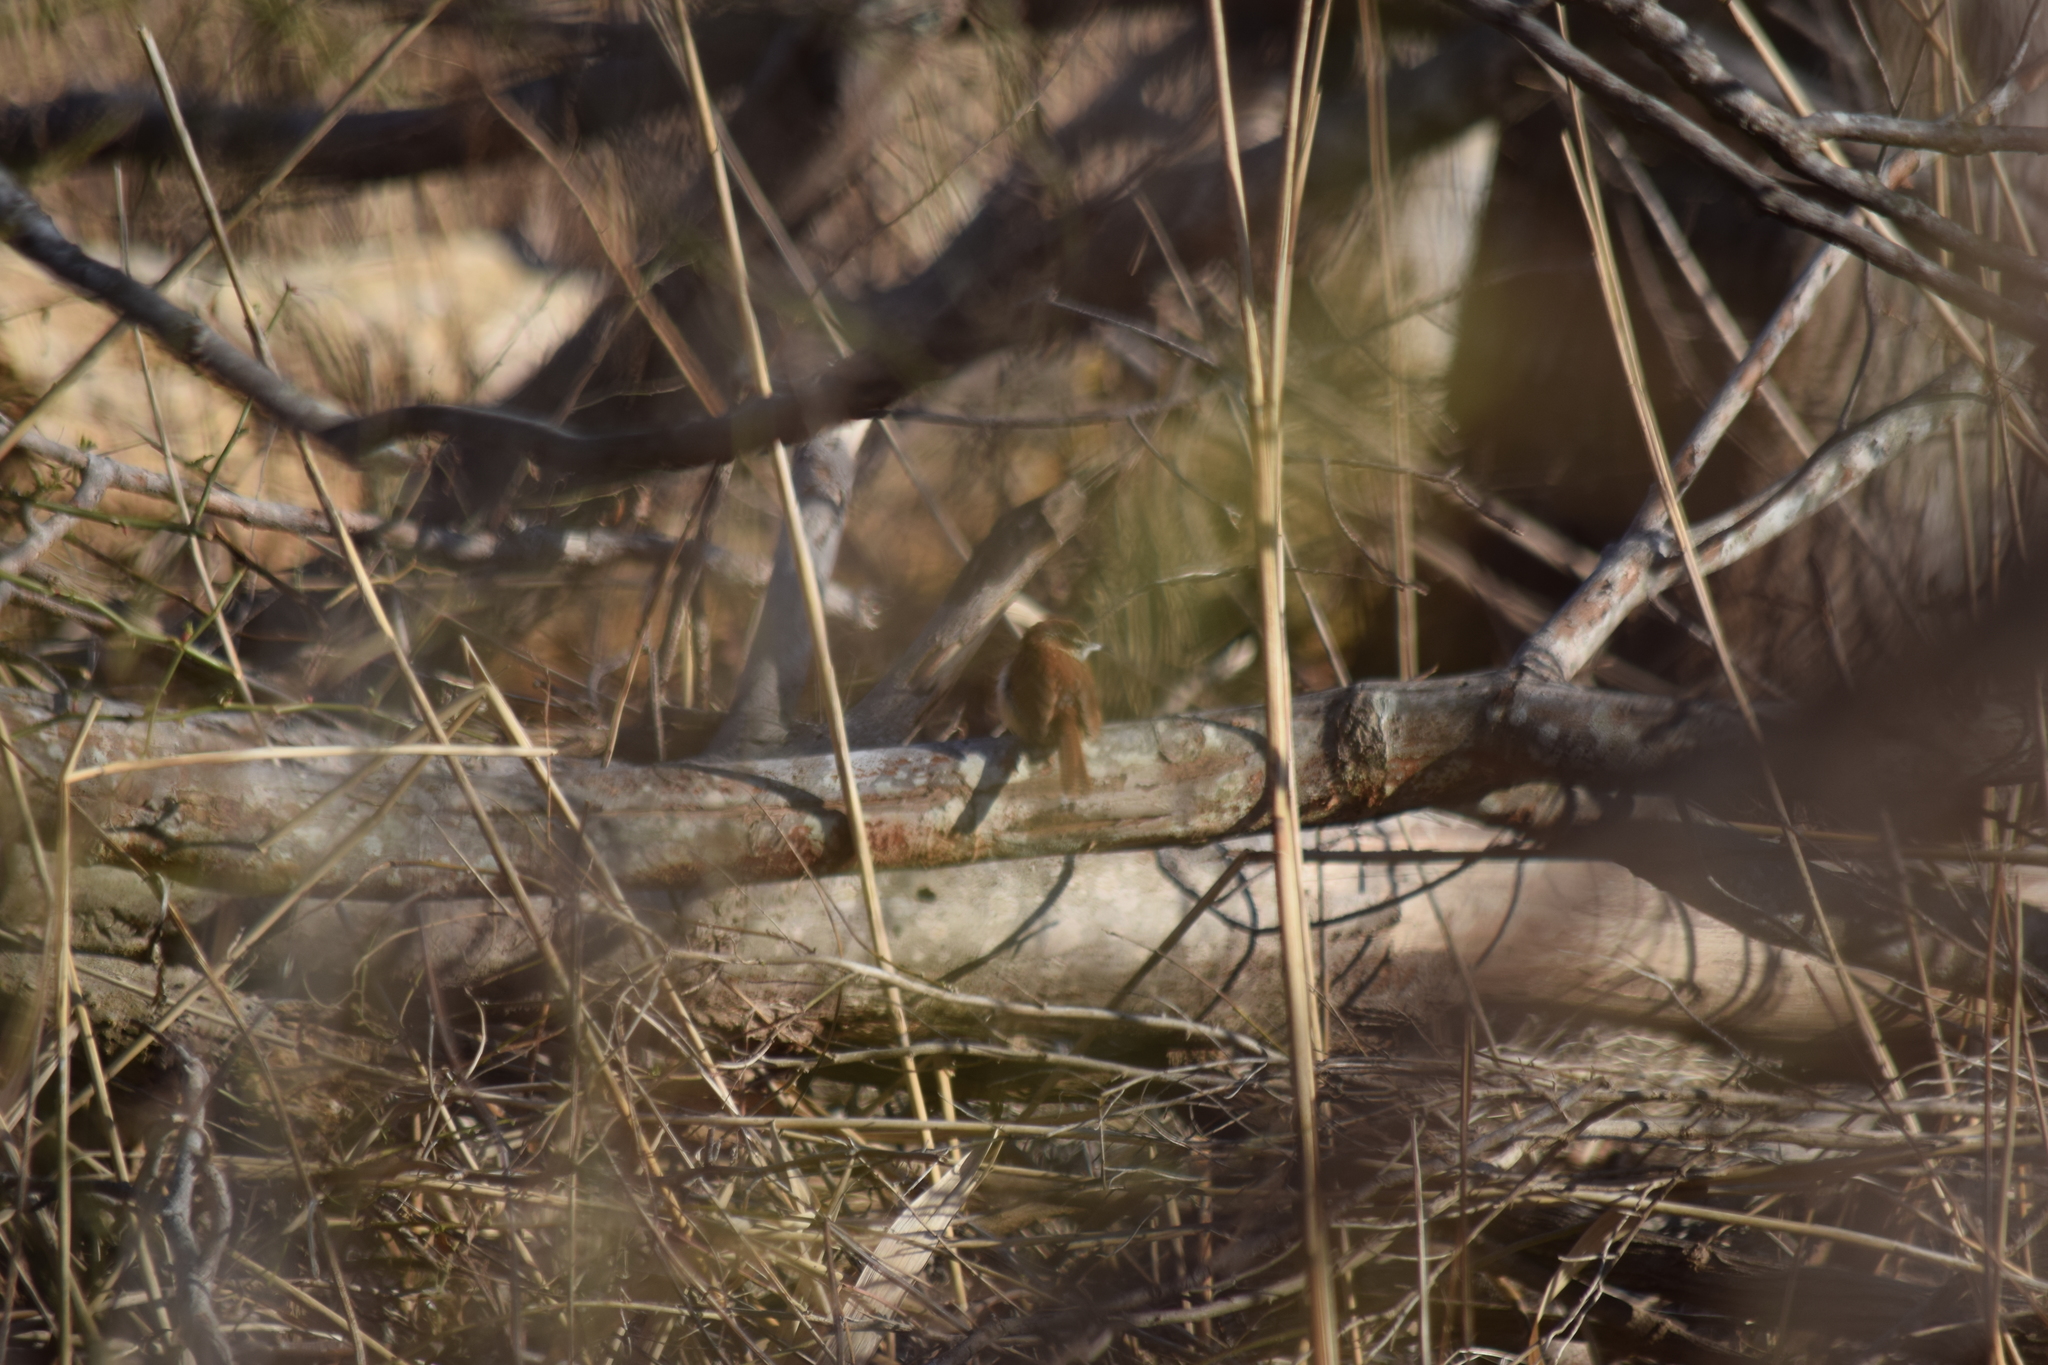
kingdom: Animalia
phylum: Chordata
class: Aves
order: Passeriformes
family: Troglodytidae
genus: Thryothorus
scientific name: Thryothorus ludovicianus
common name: Carolina wren
